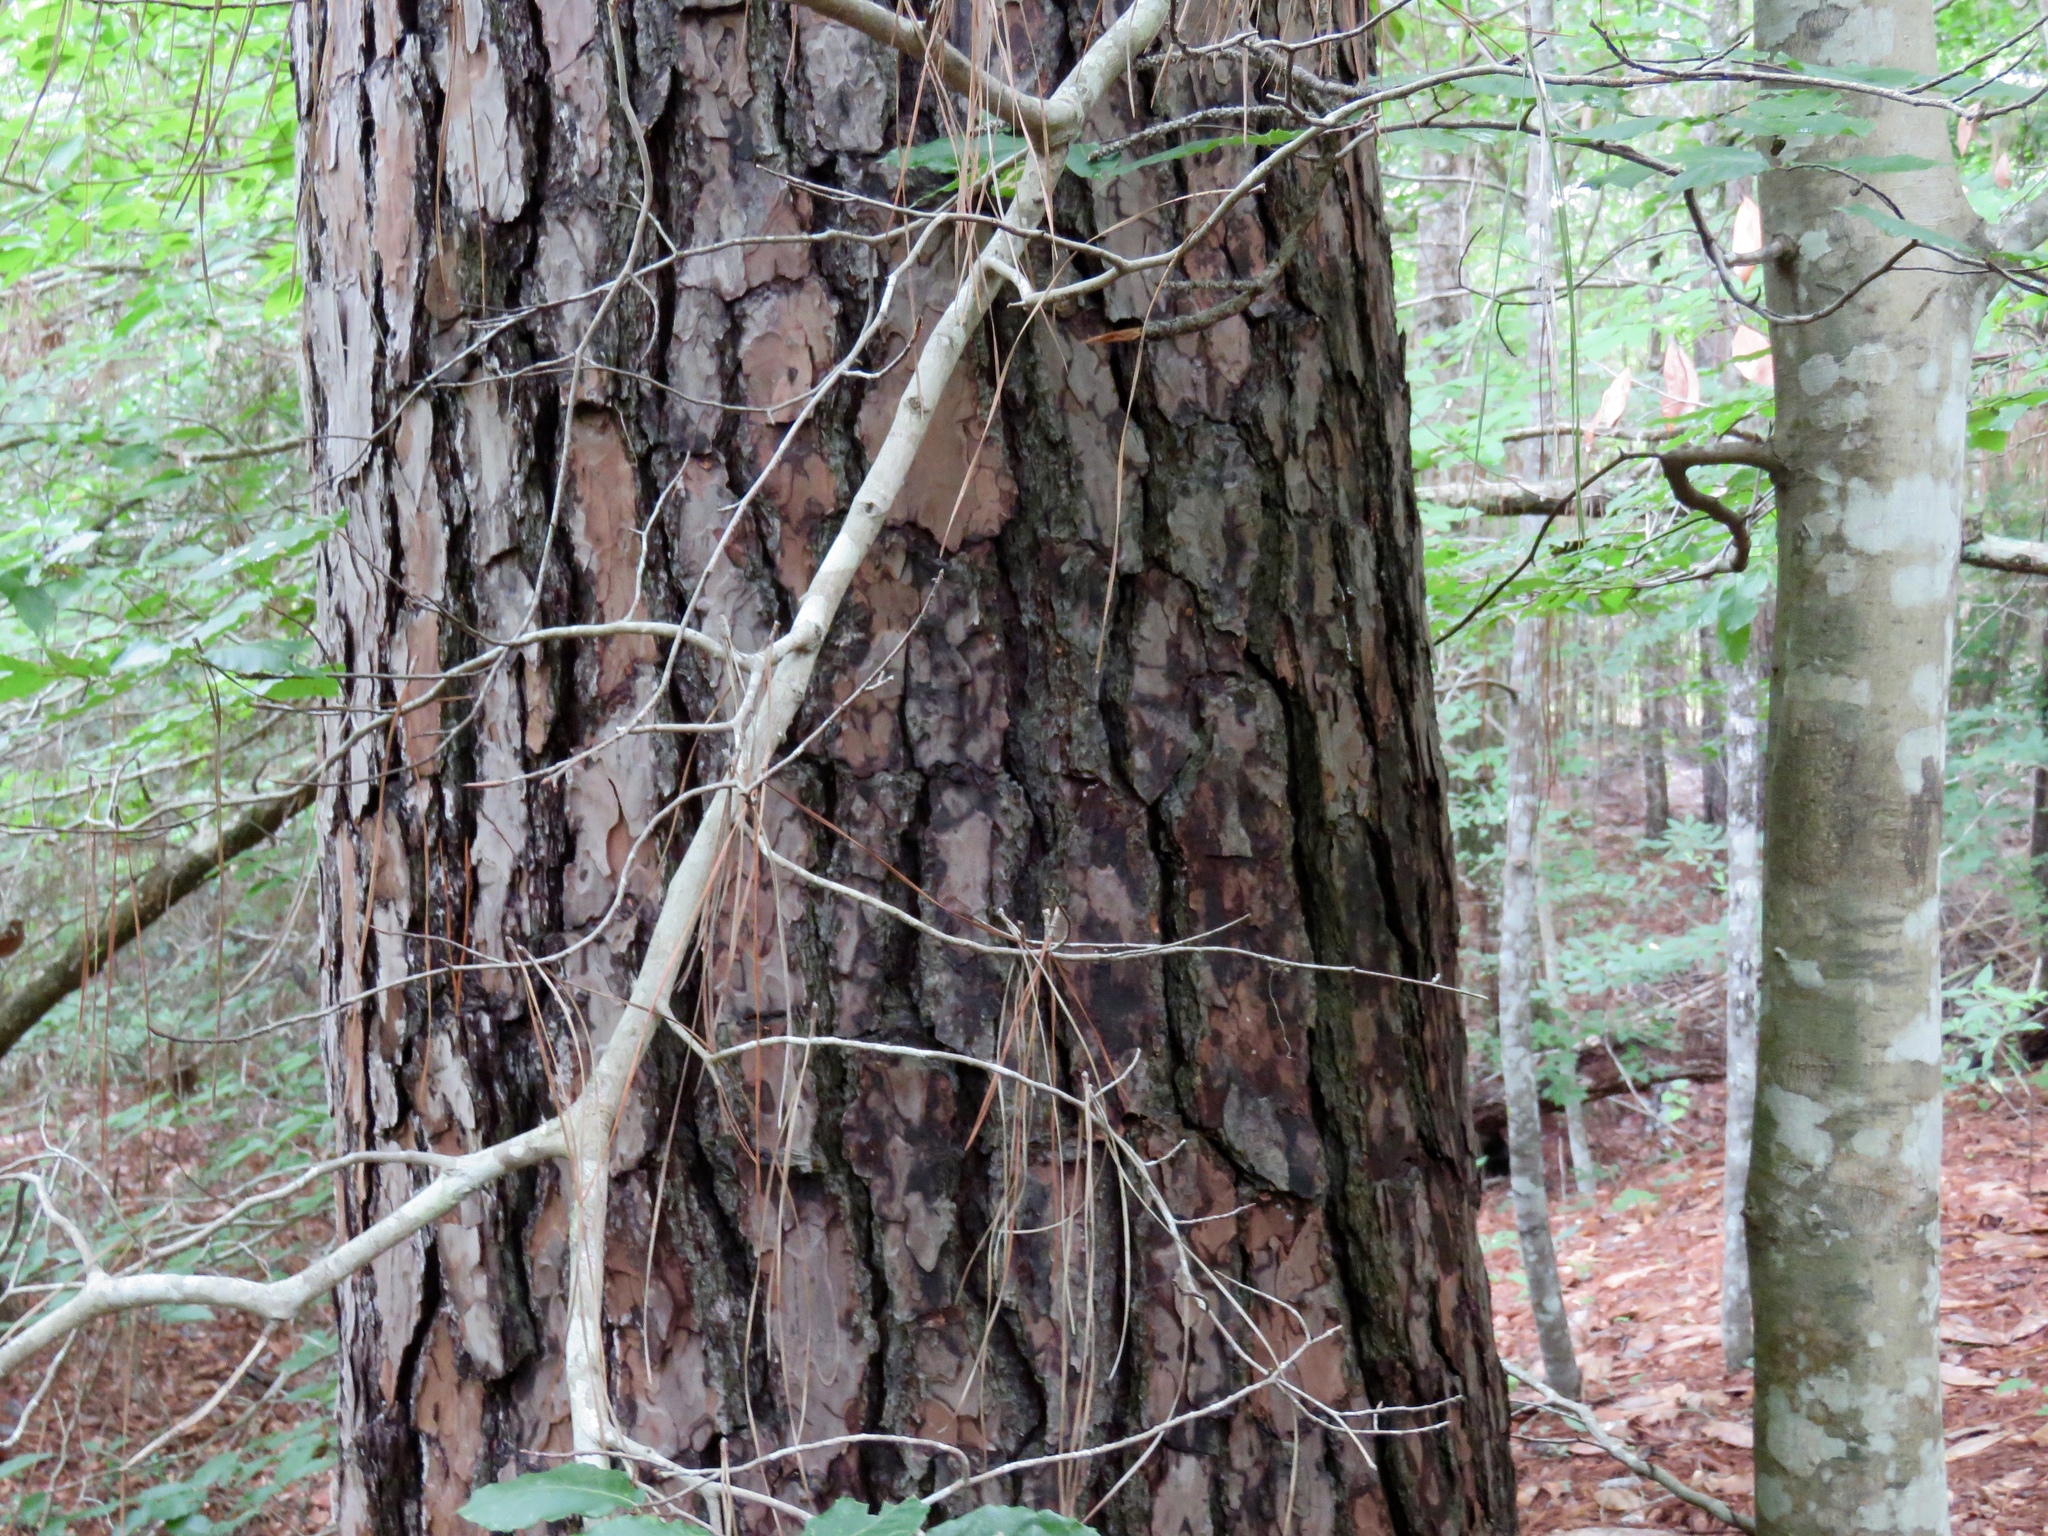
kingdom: Plantae
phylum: Tracheophyta
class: Pinopsida
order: Pinales
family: Pinaceae
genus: Pinus
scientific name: Pinus taeda
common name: Loblolly pine
